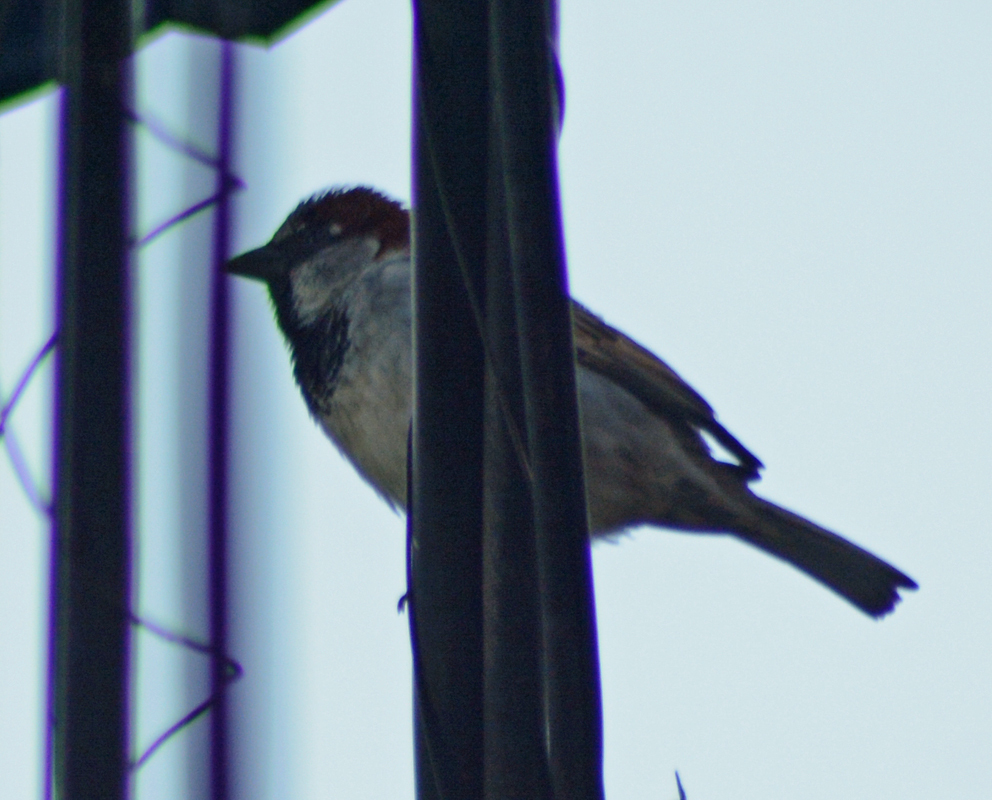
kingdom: Animalia
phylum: Chordata
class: Aves
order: Passeriformes
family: Passeridae
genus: Passer
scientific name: Passer domesticus
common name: House sparrow
